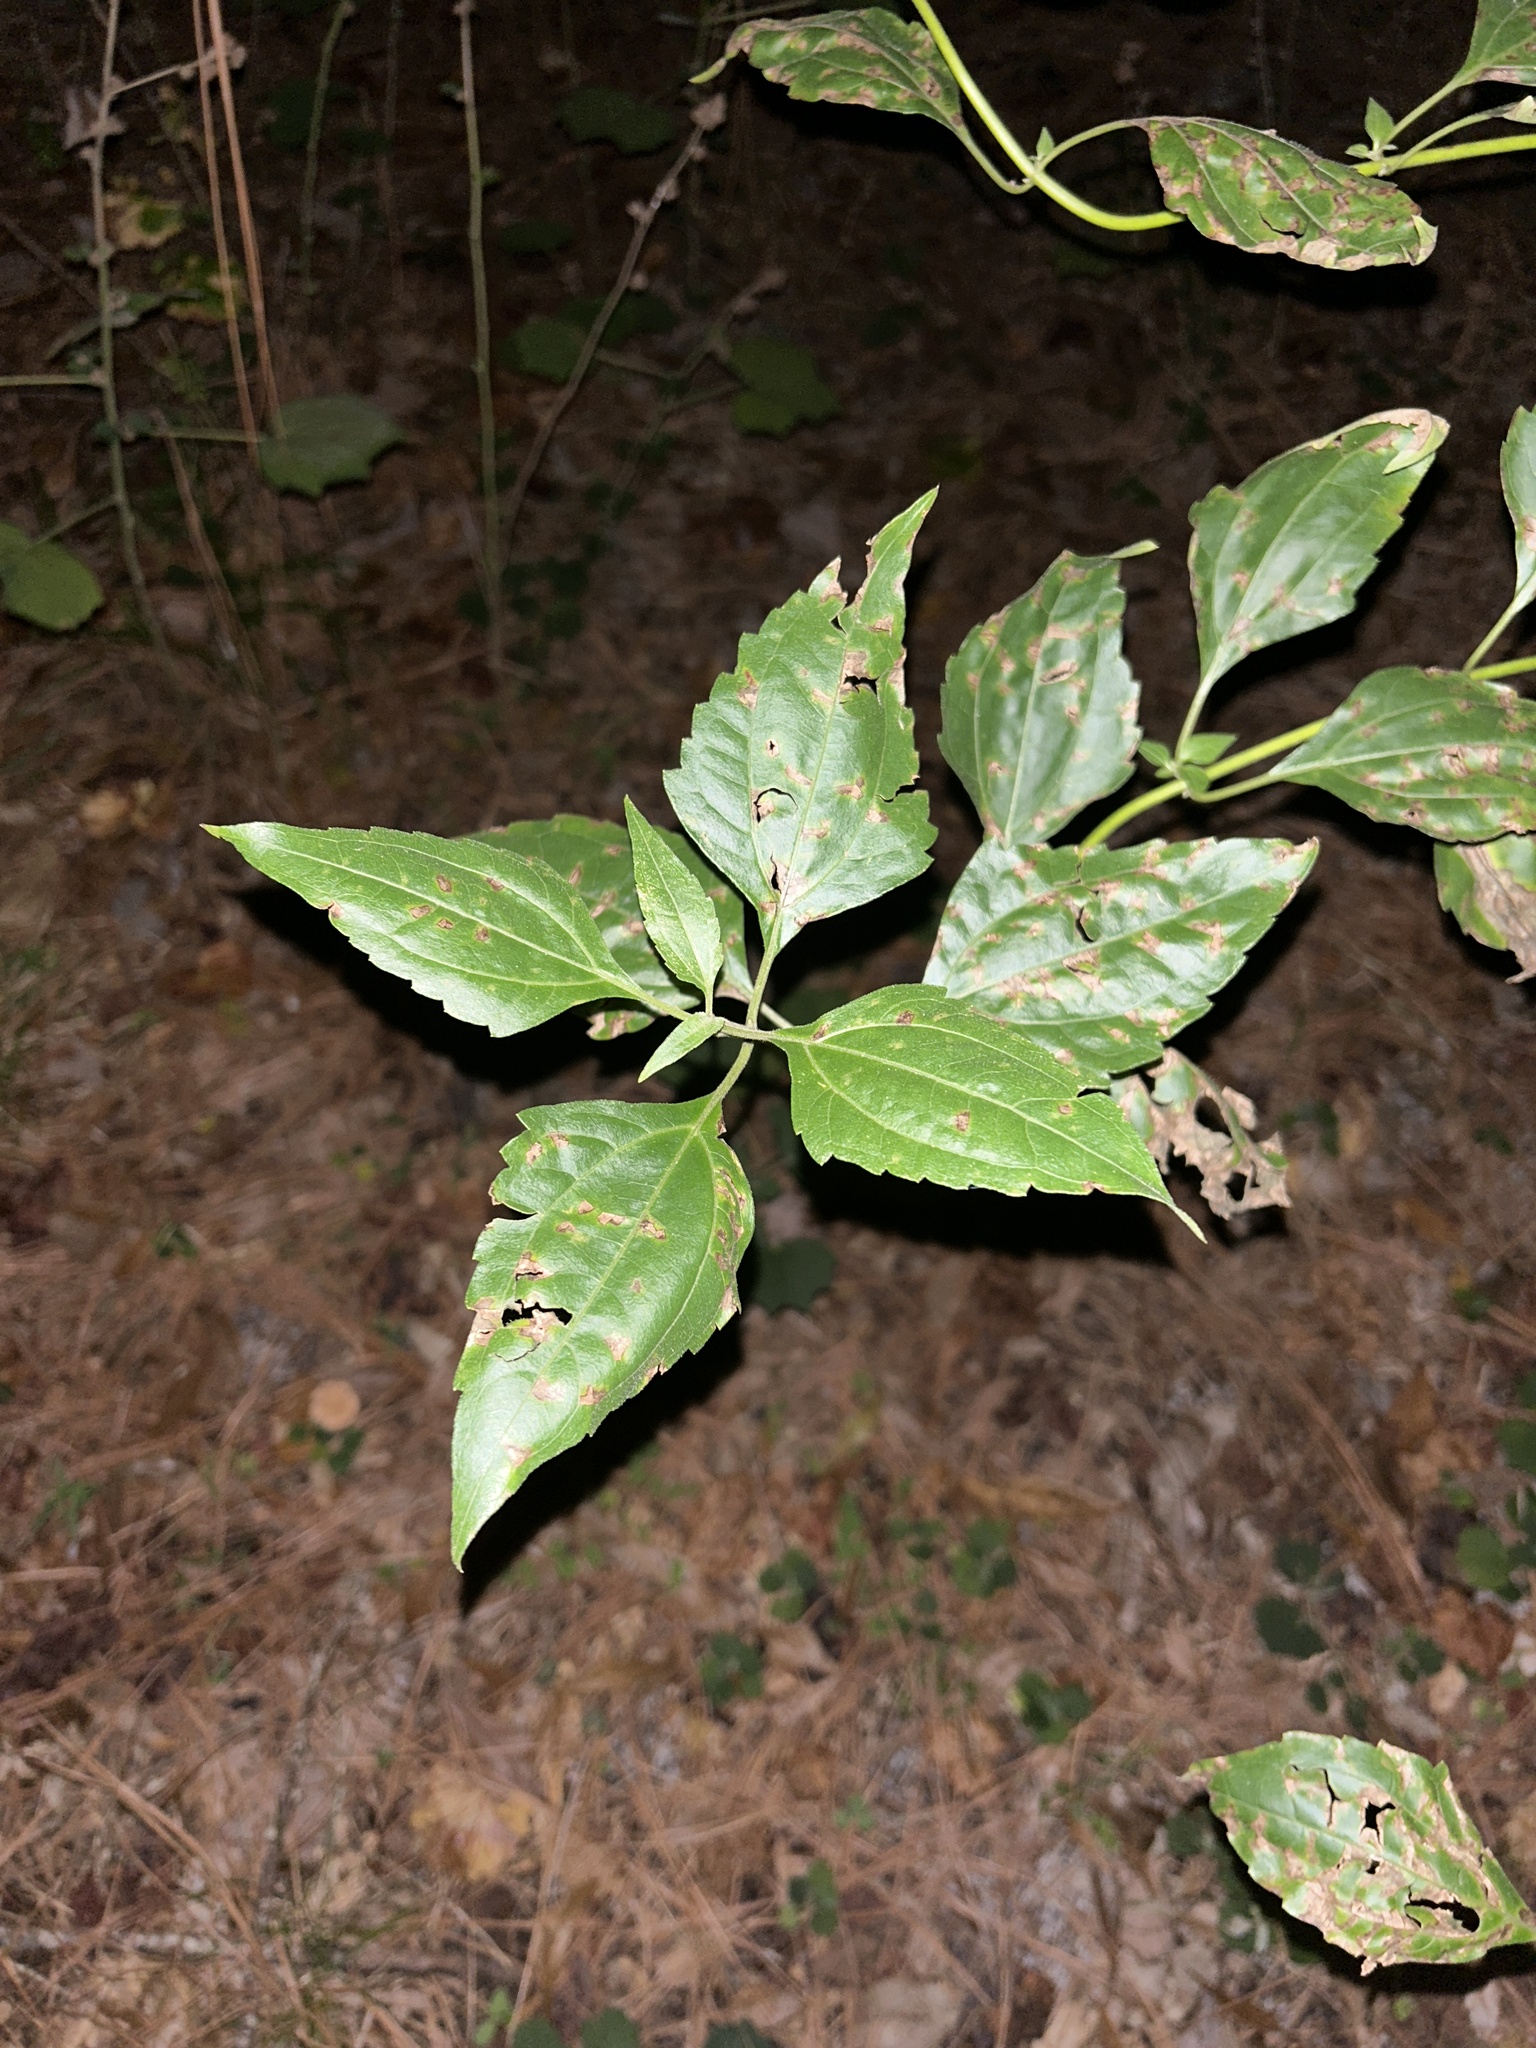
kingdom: Plantae
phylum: Tracheophyta
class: Magnoliopsida
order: Asterales
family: Asteraceae
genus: Chromolaena
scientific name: Chromolaena odorata
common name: Siamweed
